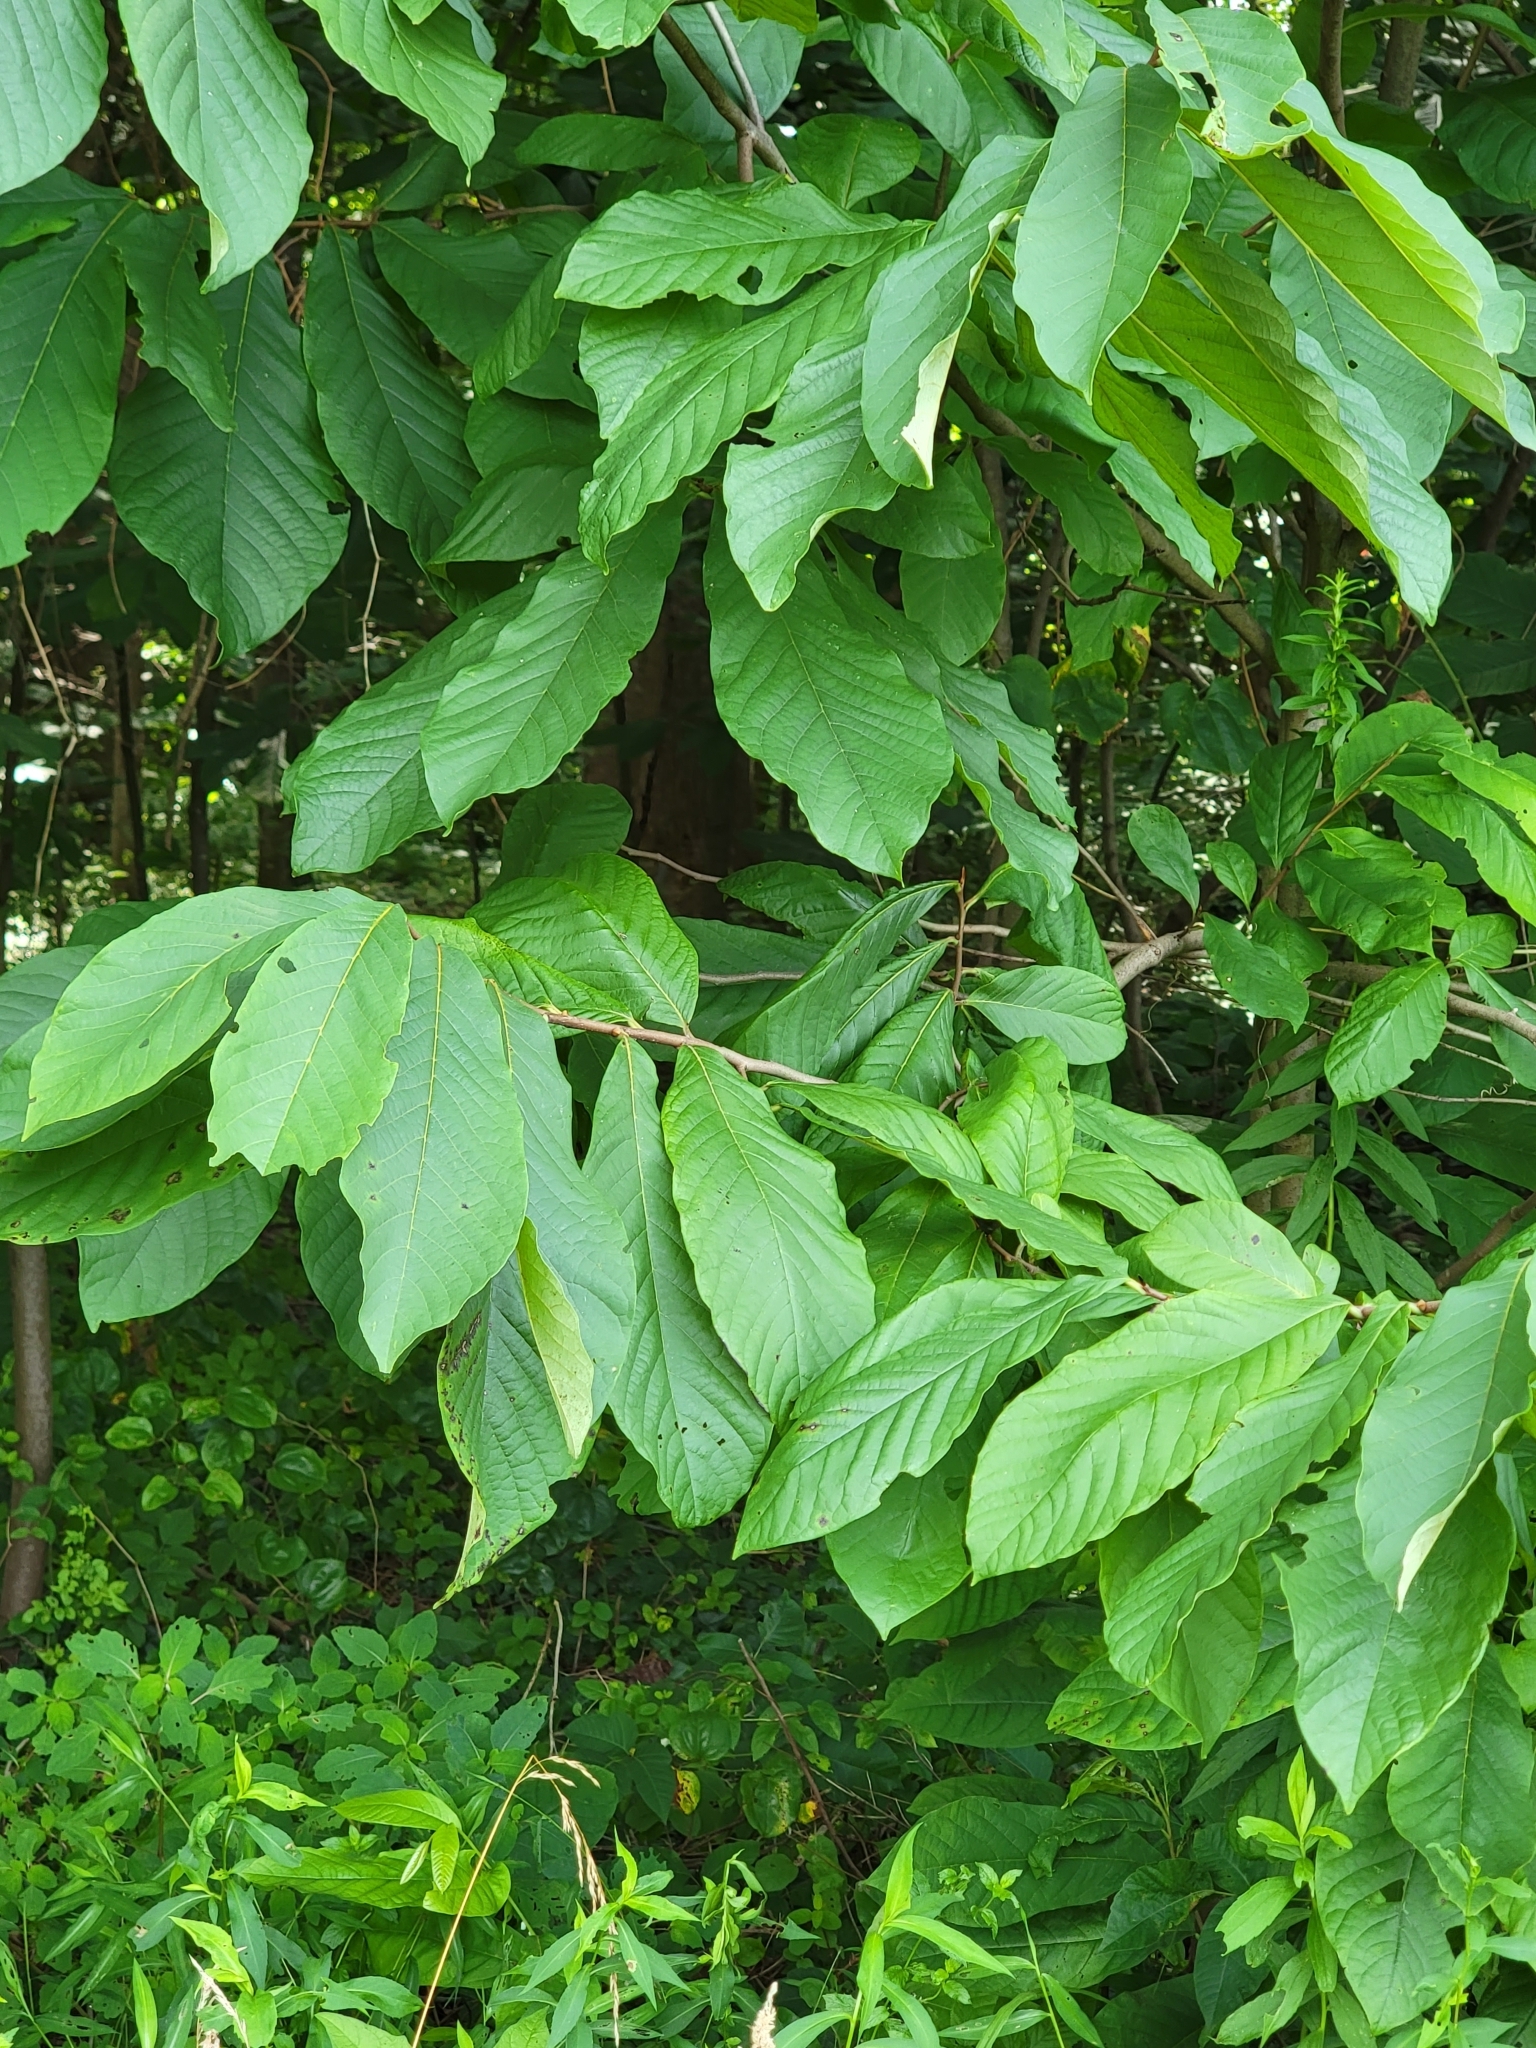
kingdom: Plantae
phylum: Tracheophyta
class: Magnoliopsida
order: Magnoliales
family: Annonaceae
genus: Asimina
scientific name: Asimina triloba
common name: Dog-banana
